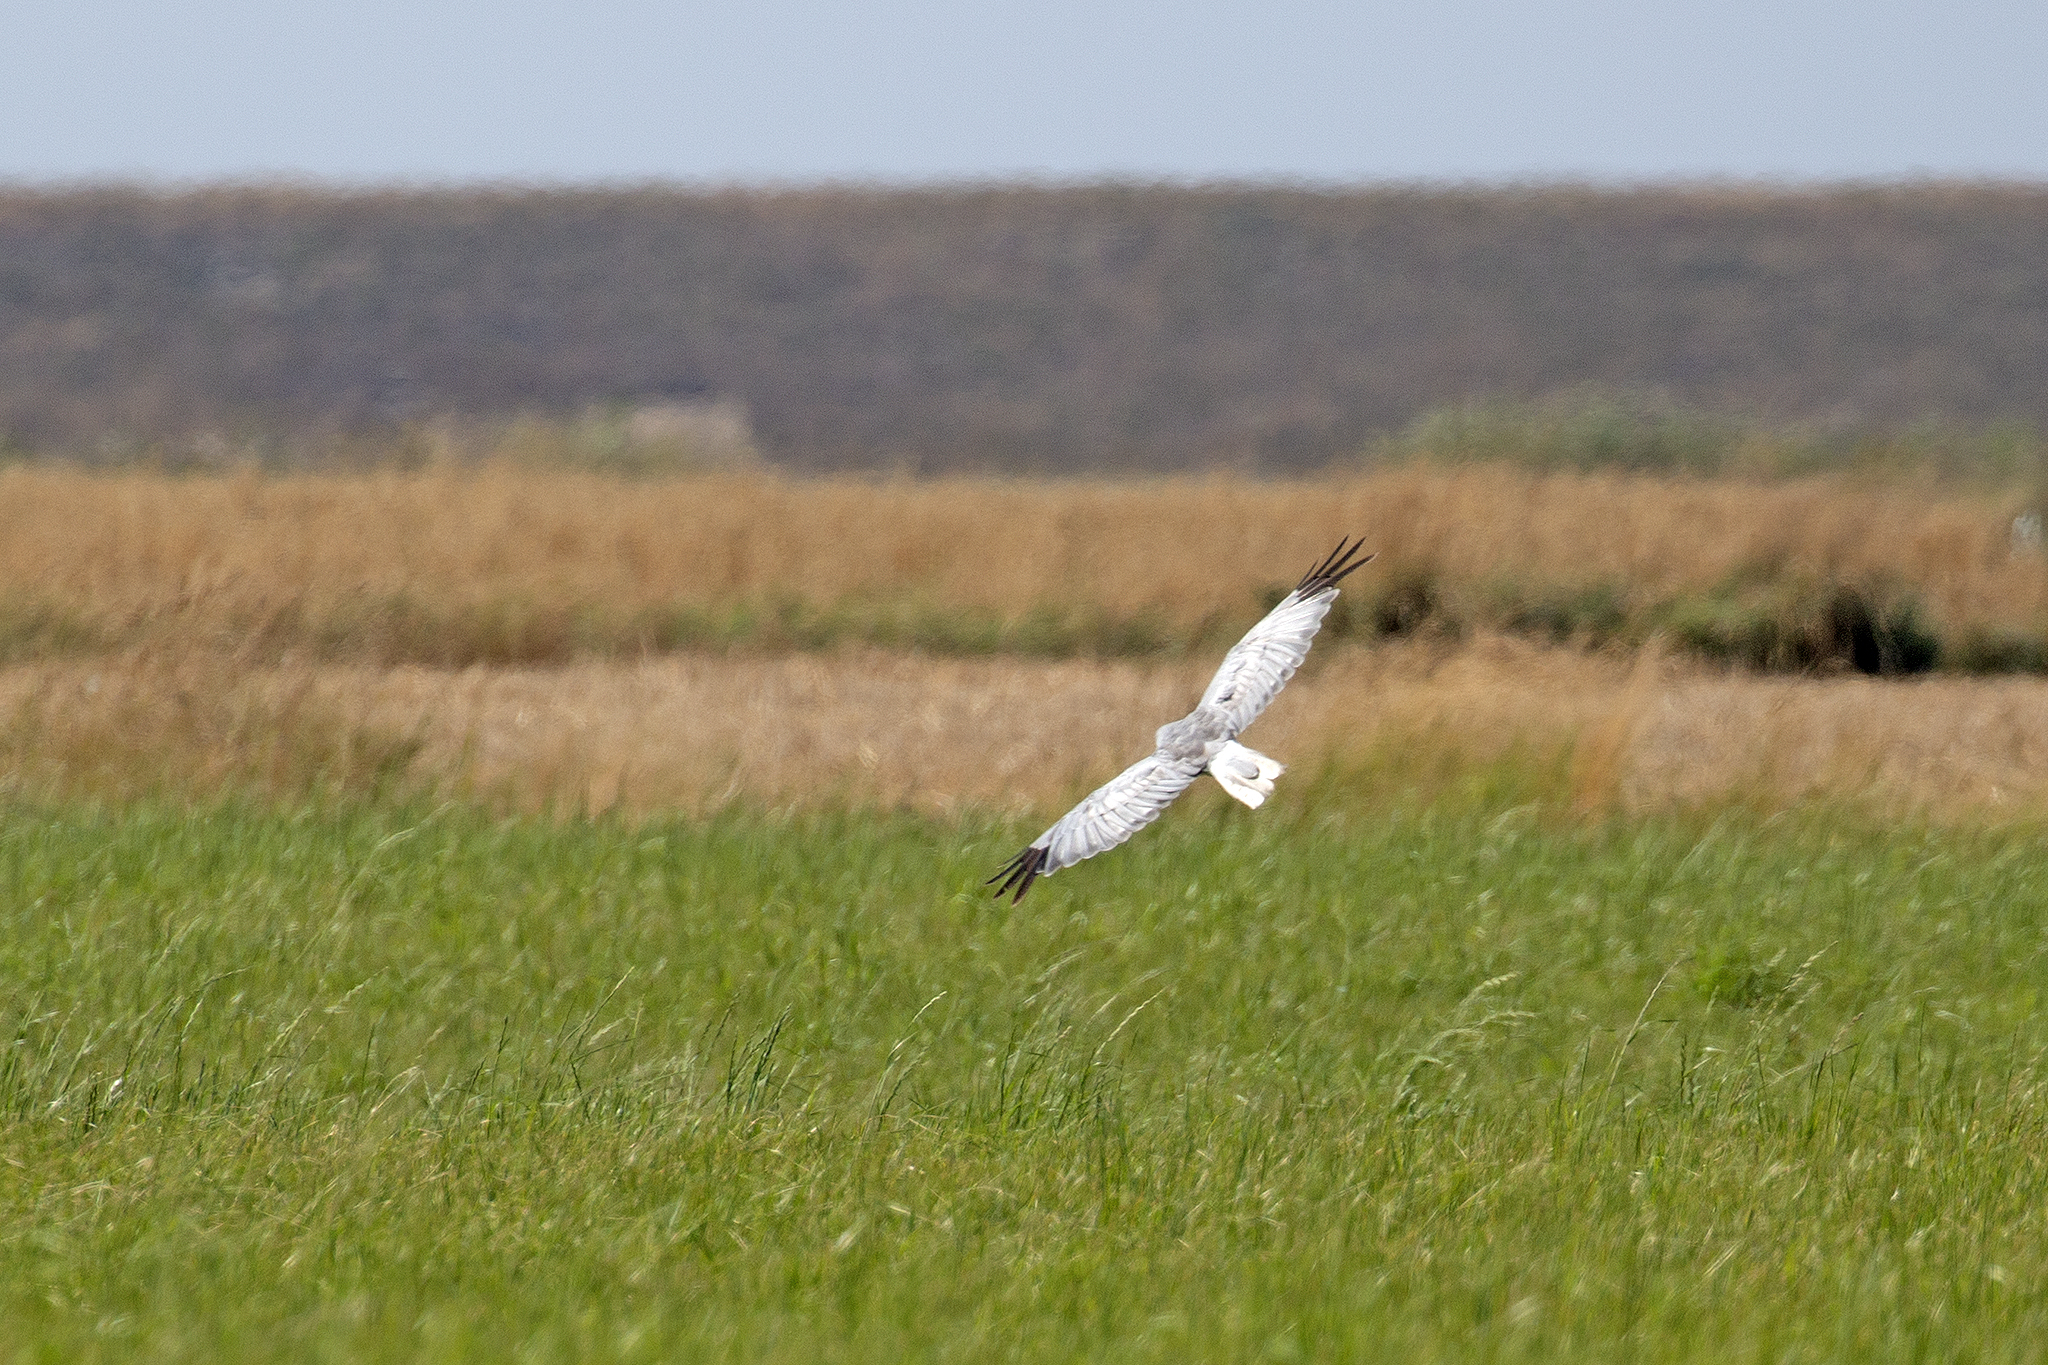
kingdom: Animalia
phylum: Chordata
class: Aves
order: Accipitriformes
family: Accipitridae
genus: Circus
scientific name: Circus cyaneus
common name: Hen harrier
